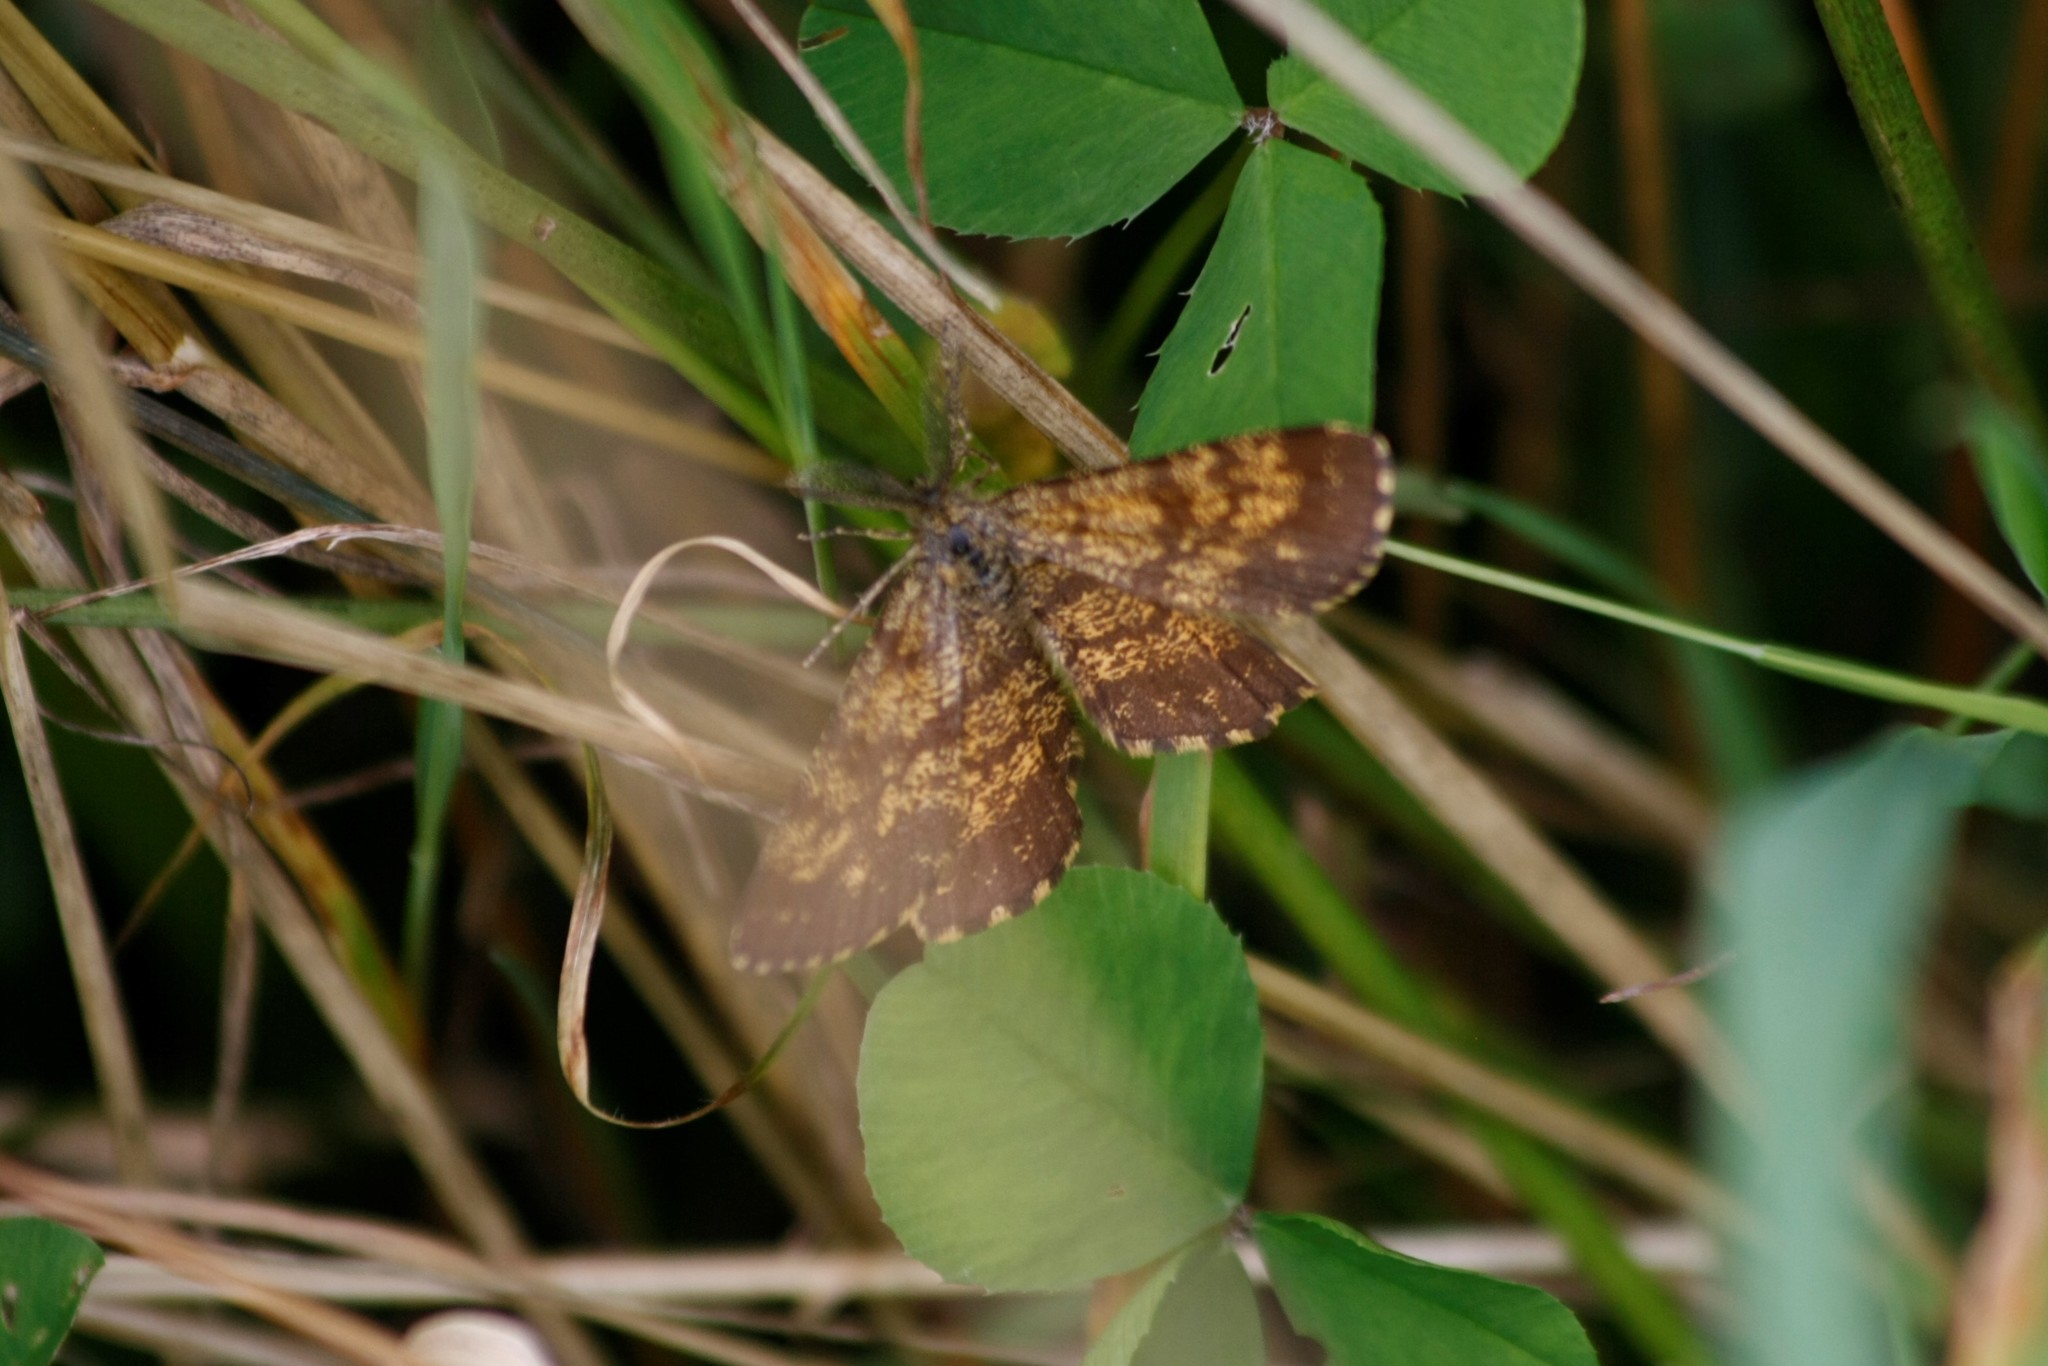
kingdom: Animalia
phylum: Arthropoda
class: Insecta
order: Lepidoptera
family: Geometridae
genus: Ematurga
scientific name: Ematurga atomaria
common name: Common heath
